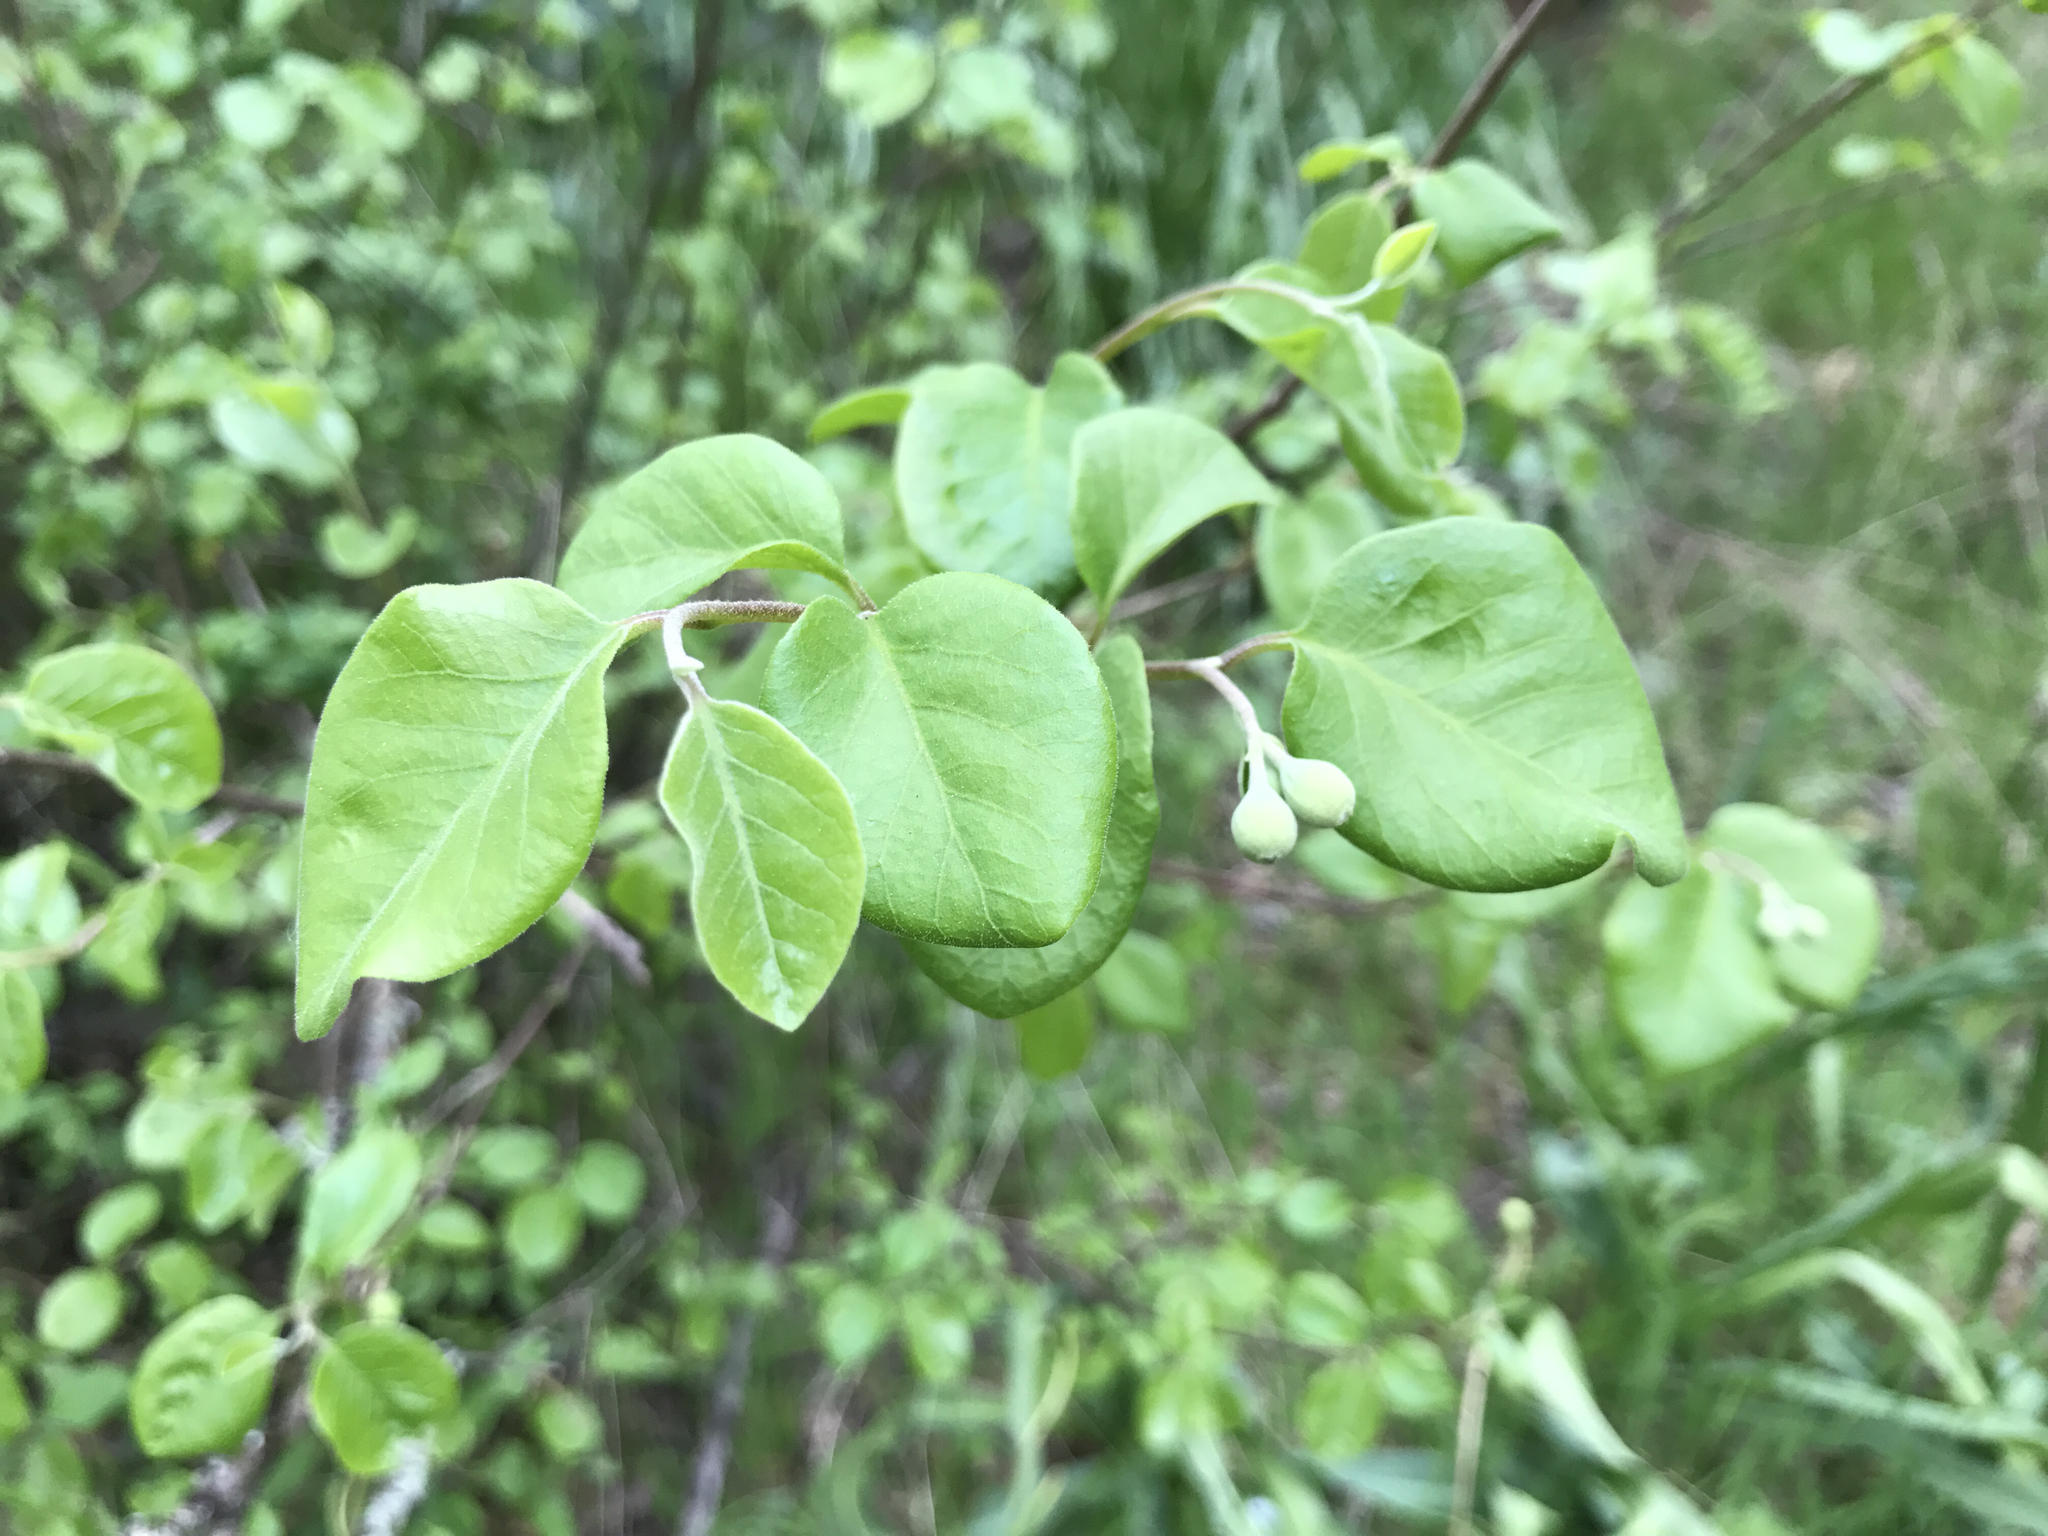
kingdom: Plantae
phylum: Tracheophyta
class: Magnoliopsida
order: Ericales
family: Styracaceae
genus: Styrax
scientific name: Styrax redivivus
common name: California styrax
